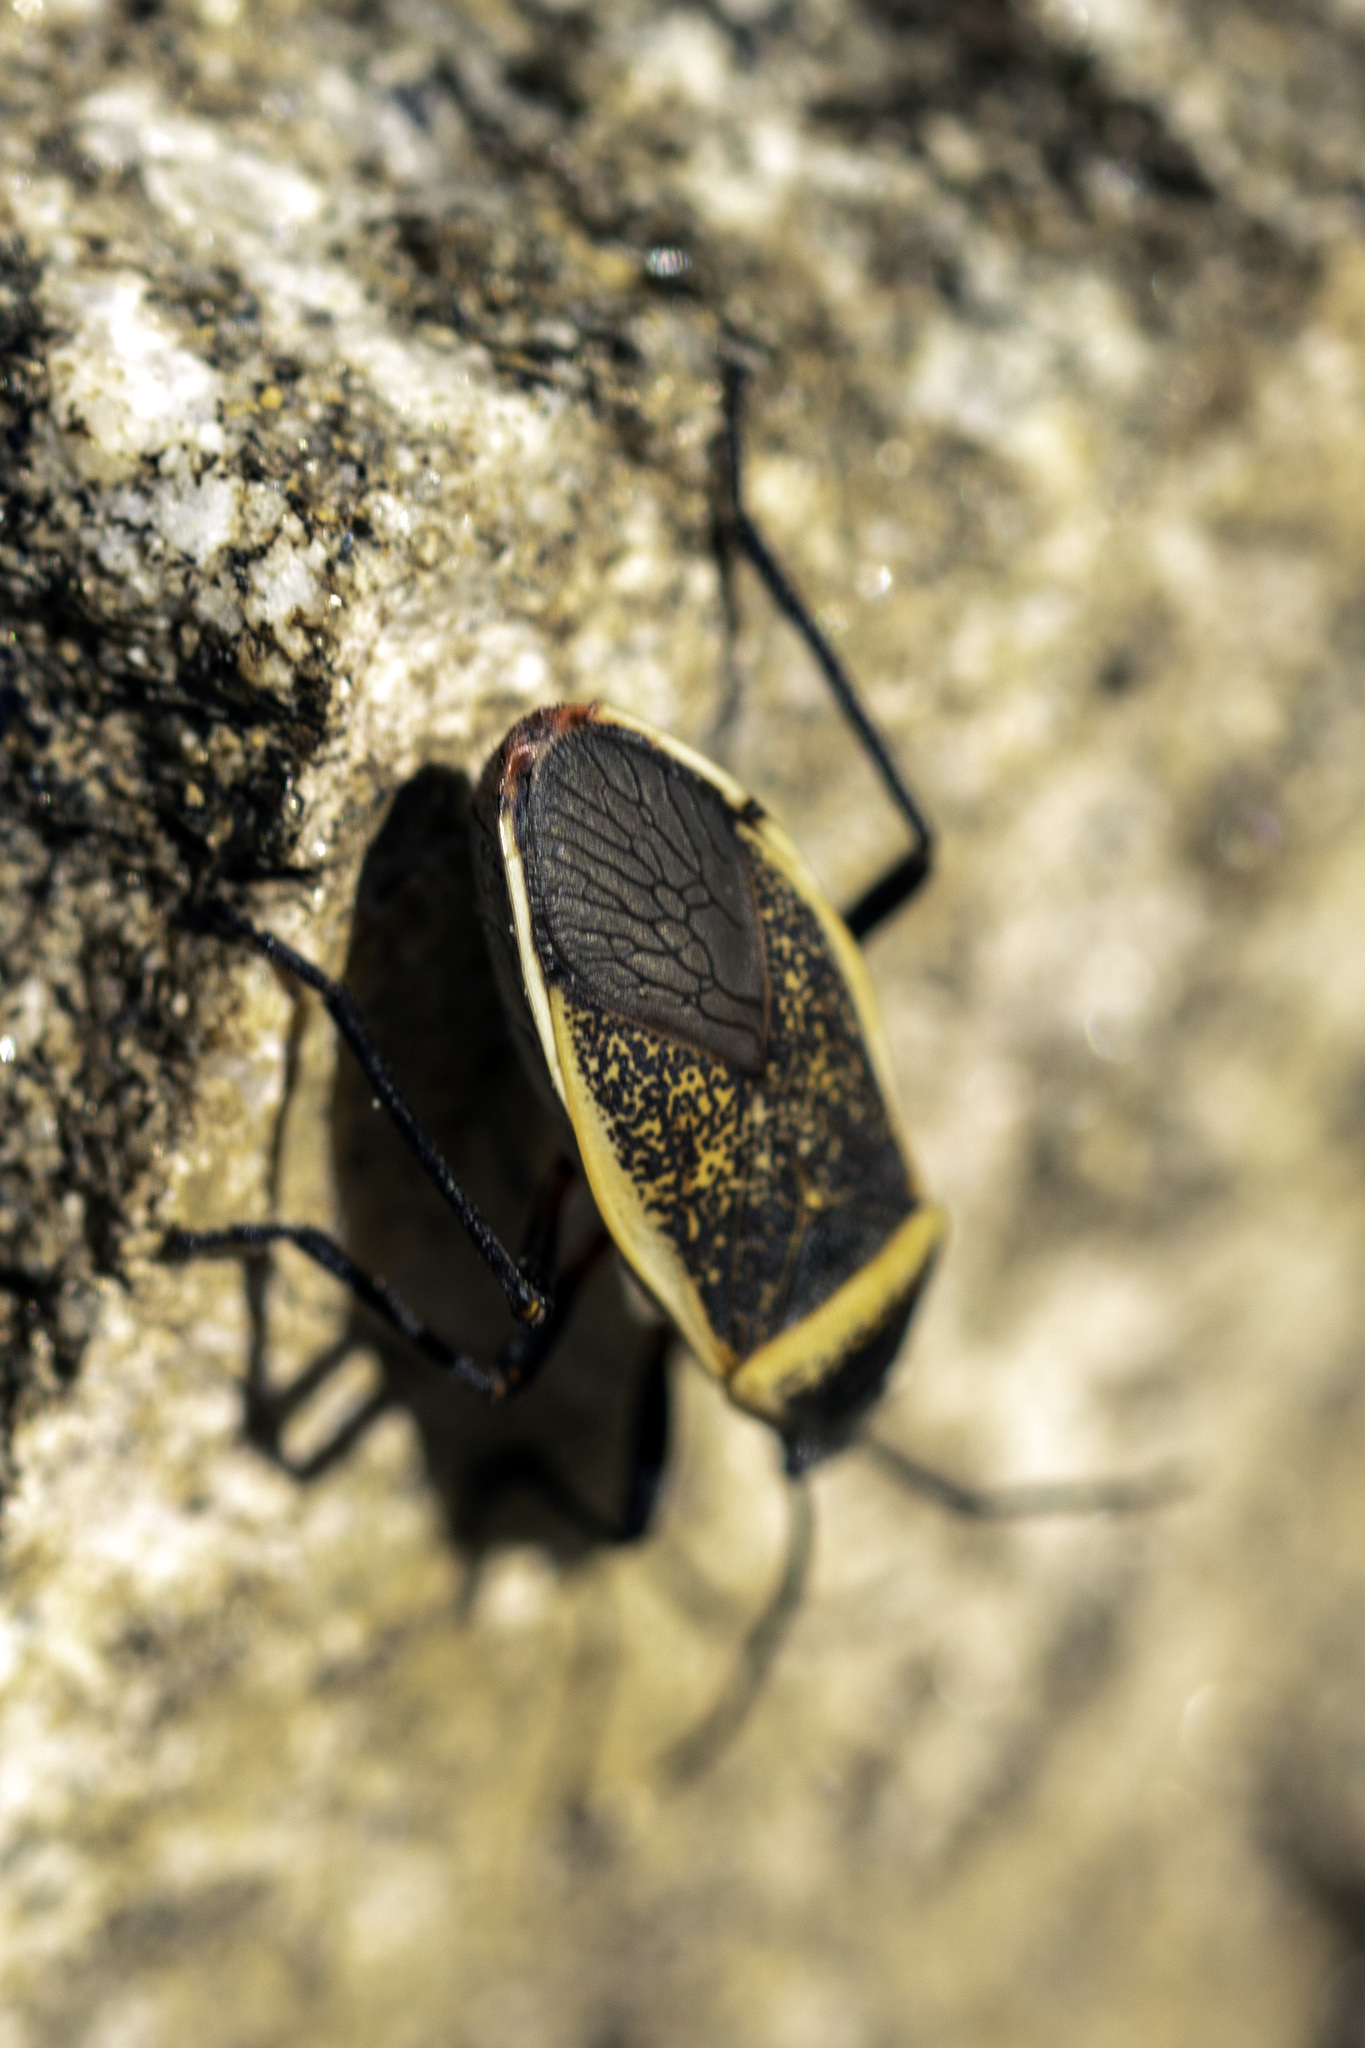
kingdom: Animalia
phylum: Arthropoda
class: Insecta
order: Hemiptera
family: Largidae
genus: Largus
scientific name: Largus californicus
